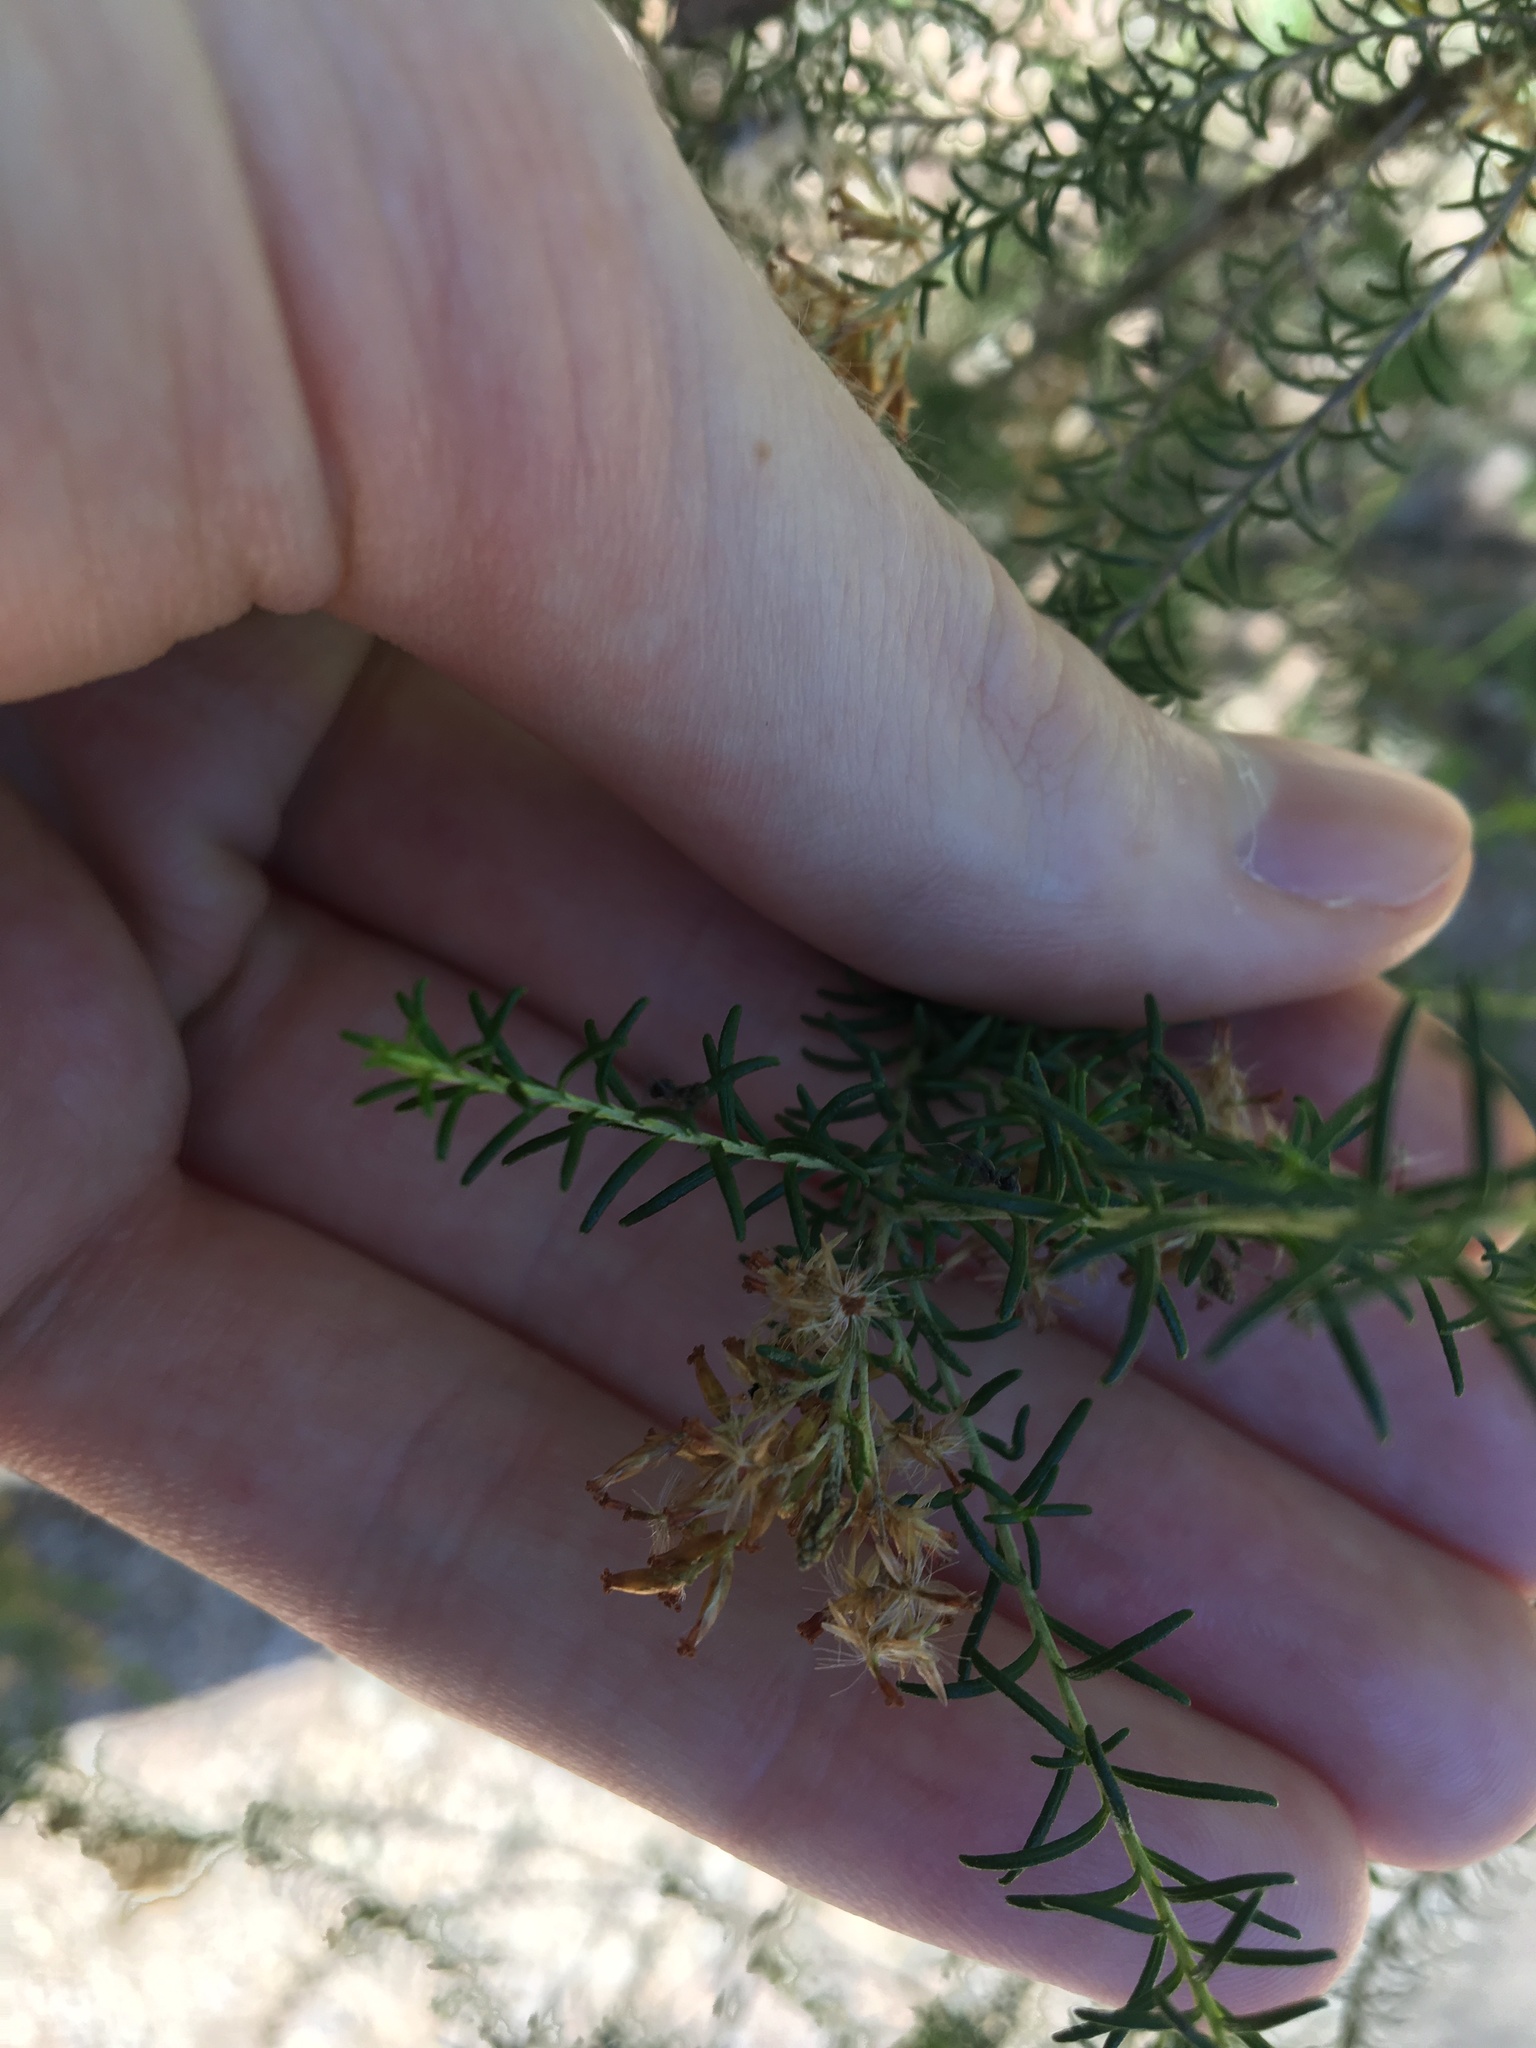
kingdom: Plantae
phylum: Tracheophyta
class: Magnoliopsida
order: Myrtales
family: Myrtaceae
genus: Kunzea
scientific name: Kunzea ambigua
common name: Tickbush
